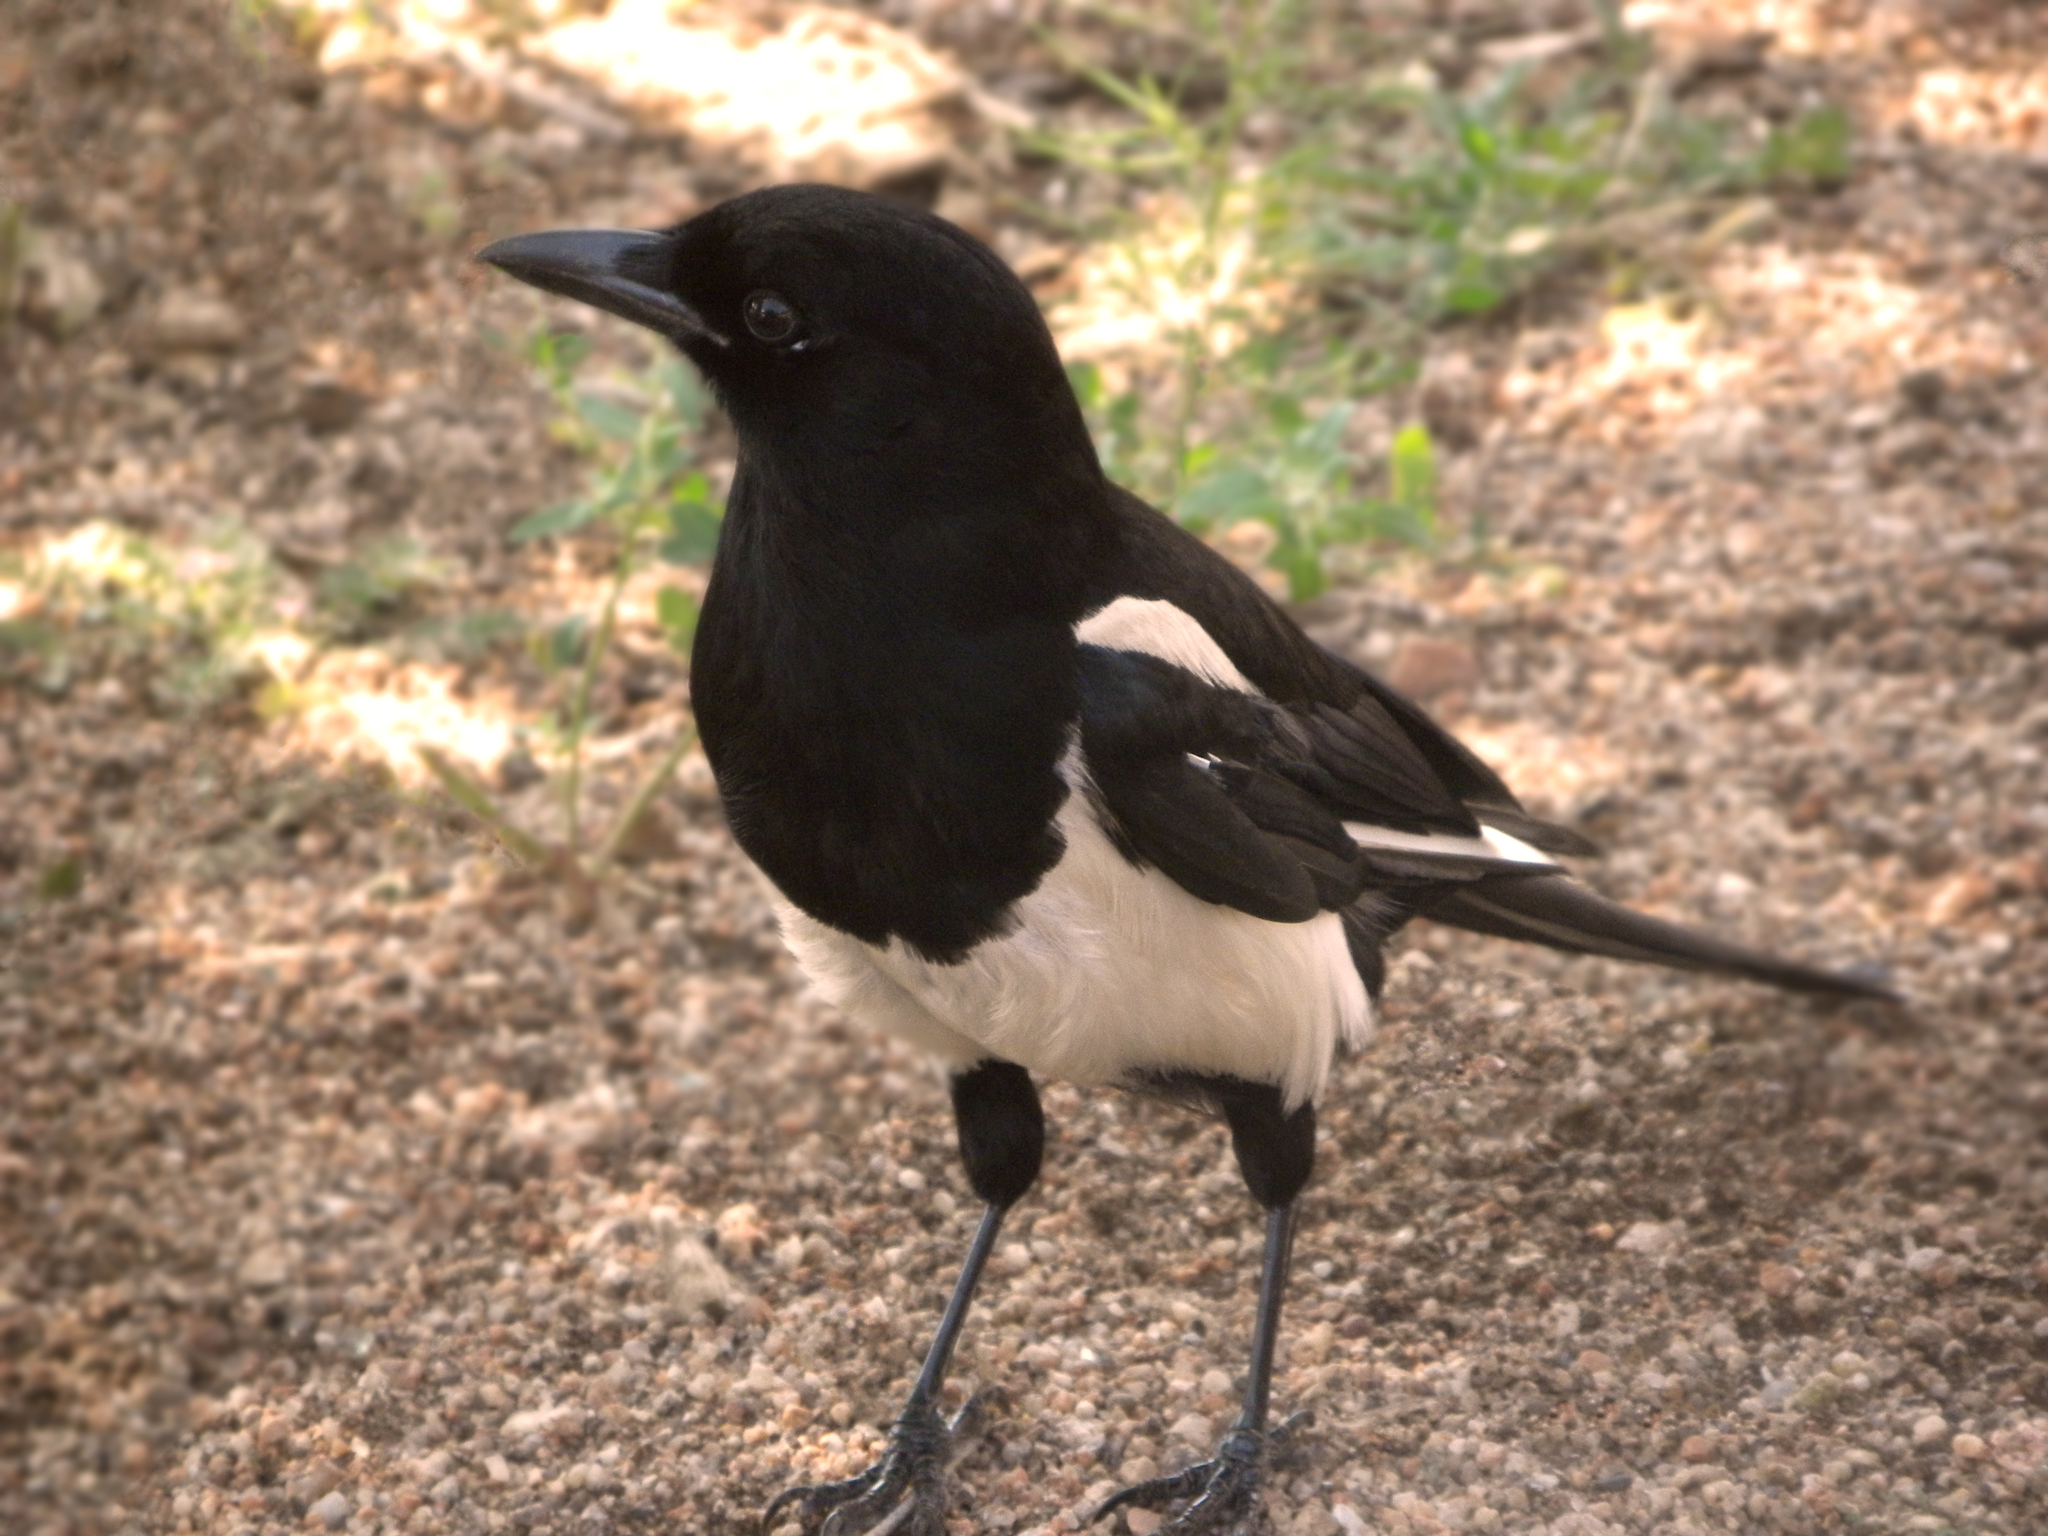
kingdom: Animalia
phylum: Chordata
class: Aves
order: Passeriformes
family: Corvidae
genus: Pica
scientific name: Pica hudsonia
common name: Black-billed magpie
